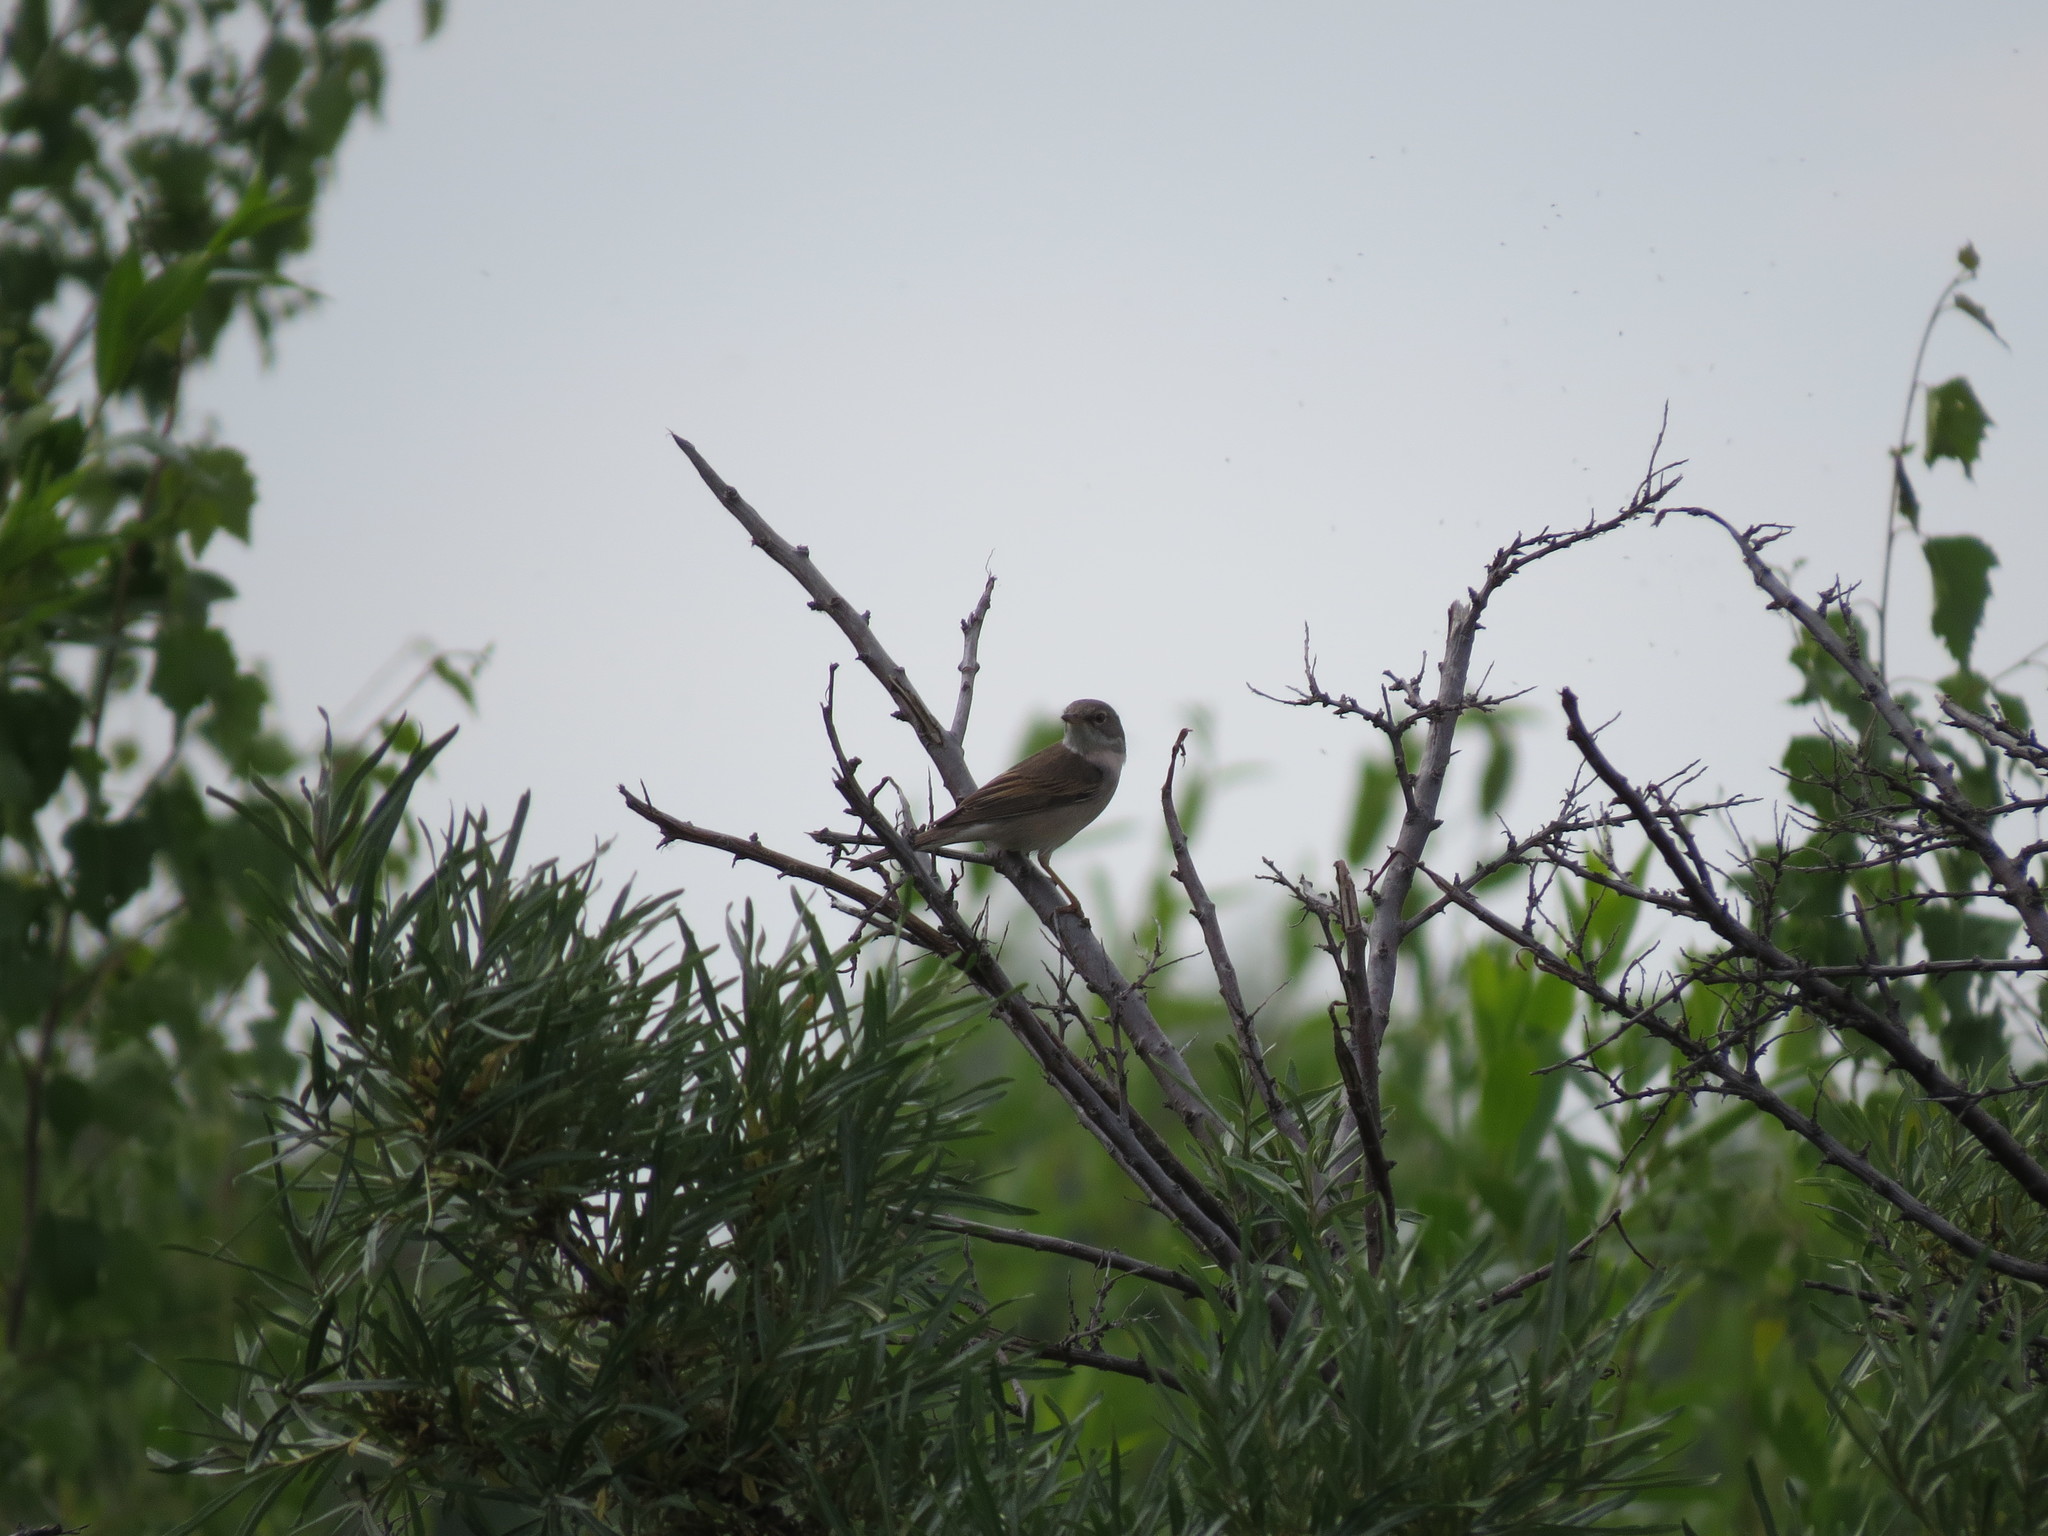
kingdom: Animalia
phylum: Chordata
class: Aves
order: Passeriformes
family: Sylviidae
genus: Sylvia
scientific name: Sylvia communis
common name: Common whitethroat
